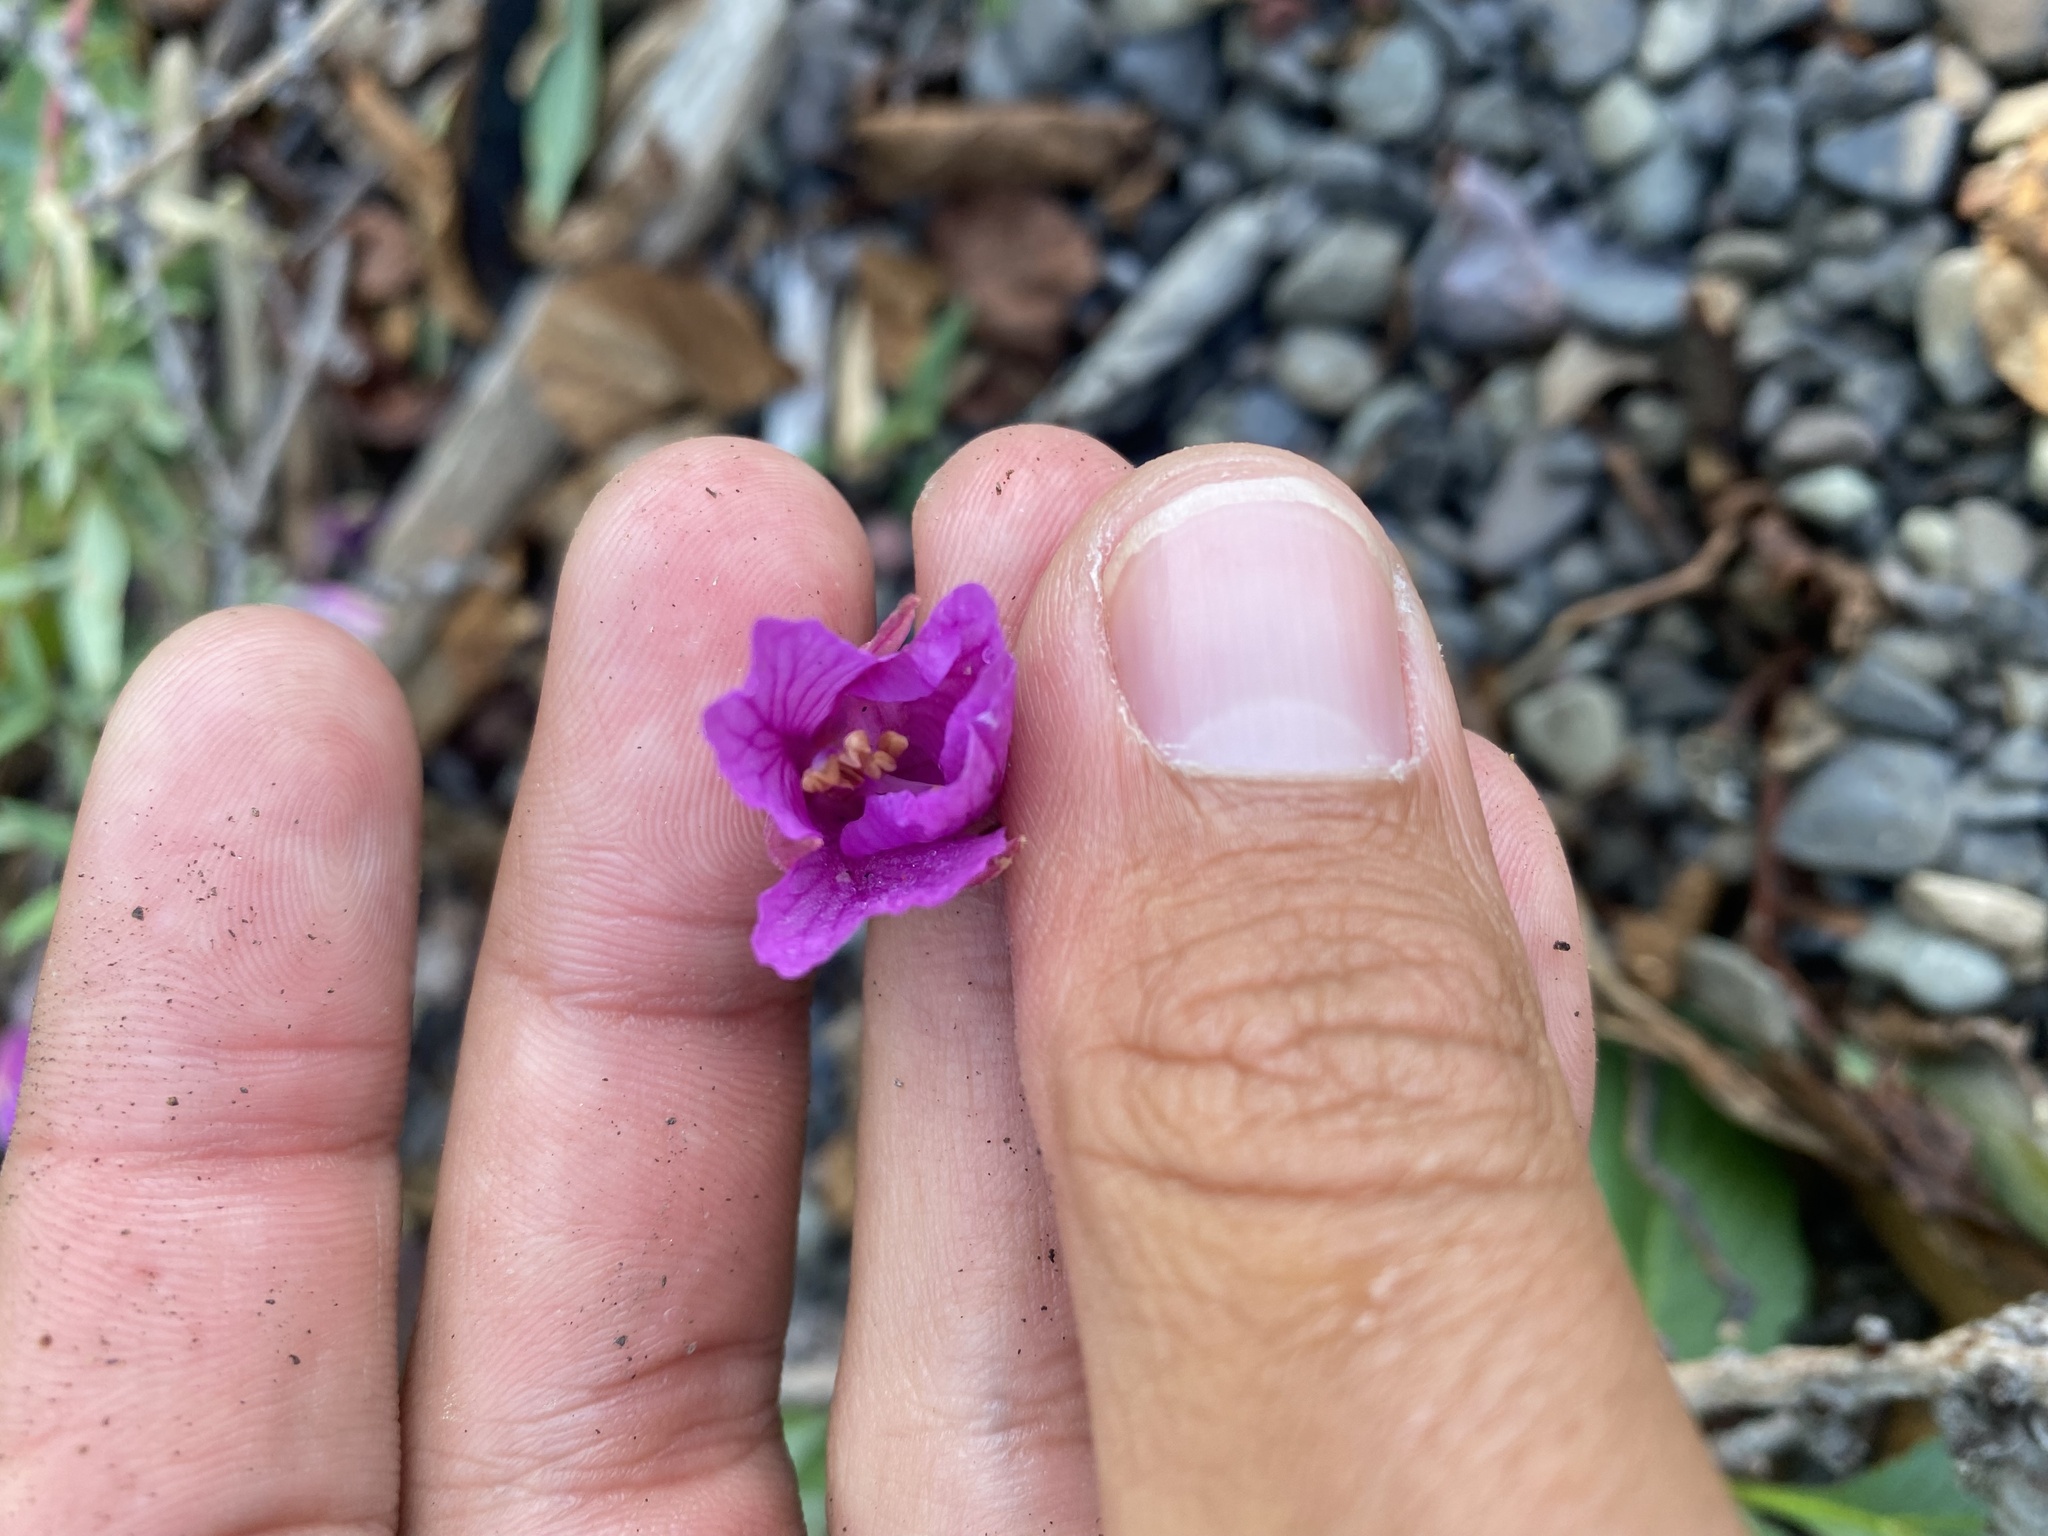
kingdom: Plantae
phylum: Tracheophyta
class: Magnoliopsida
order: Myrtales
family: Onagraceae
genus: Chamaenerion
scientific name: Chamaenerion latifolium
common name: Dwarf fireweed
